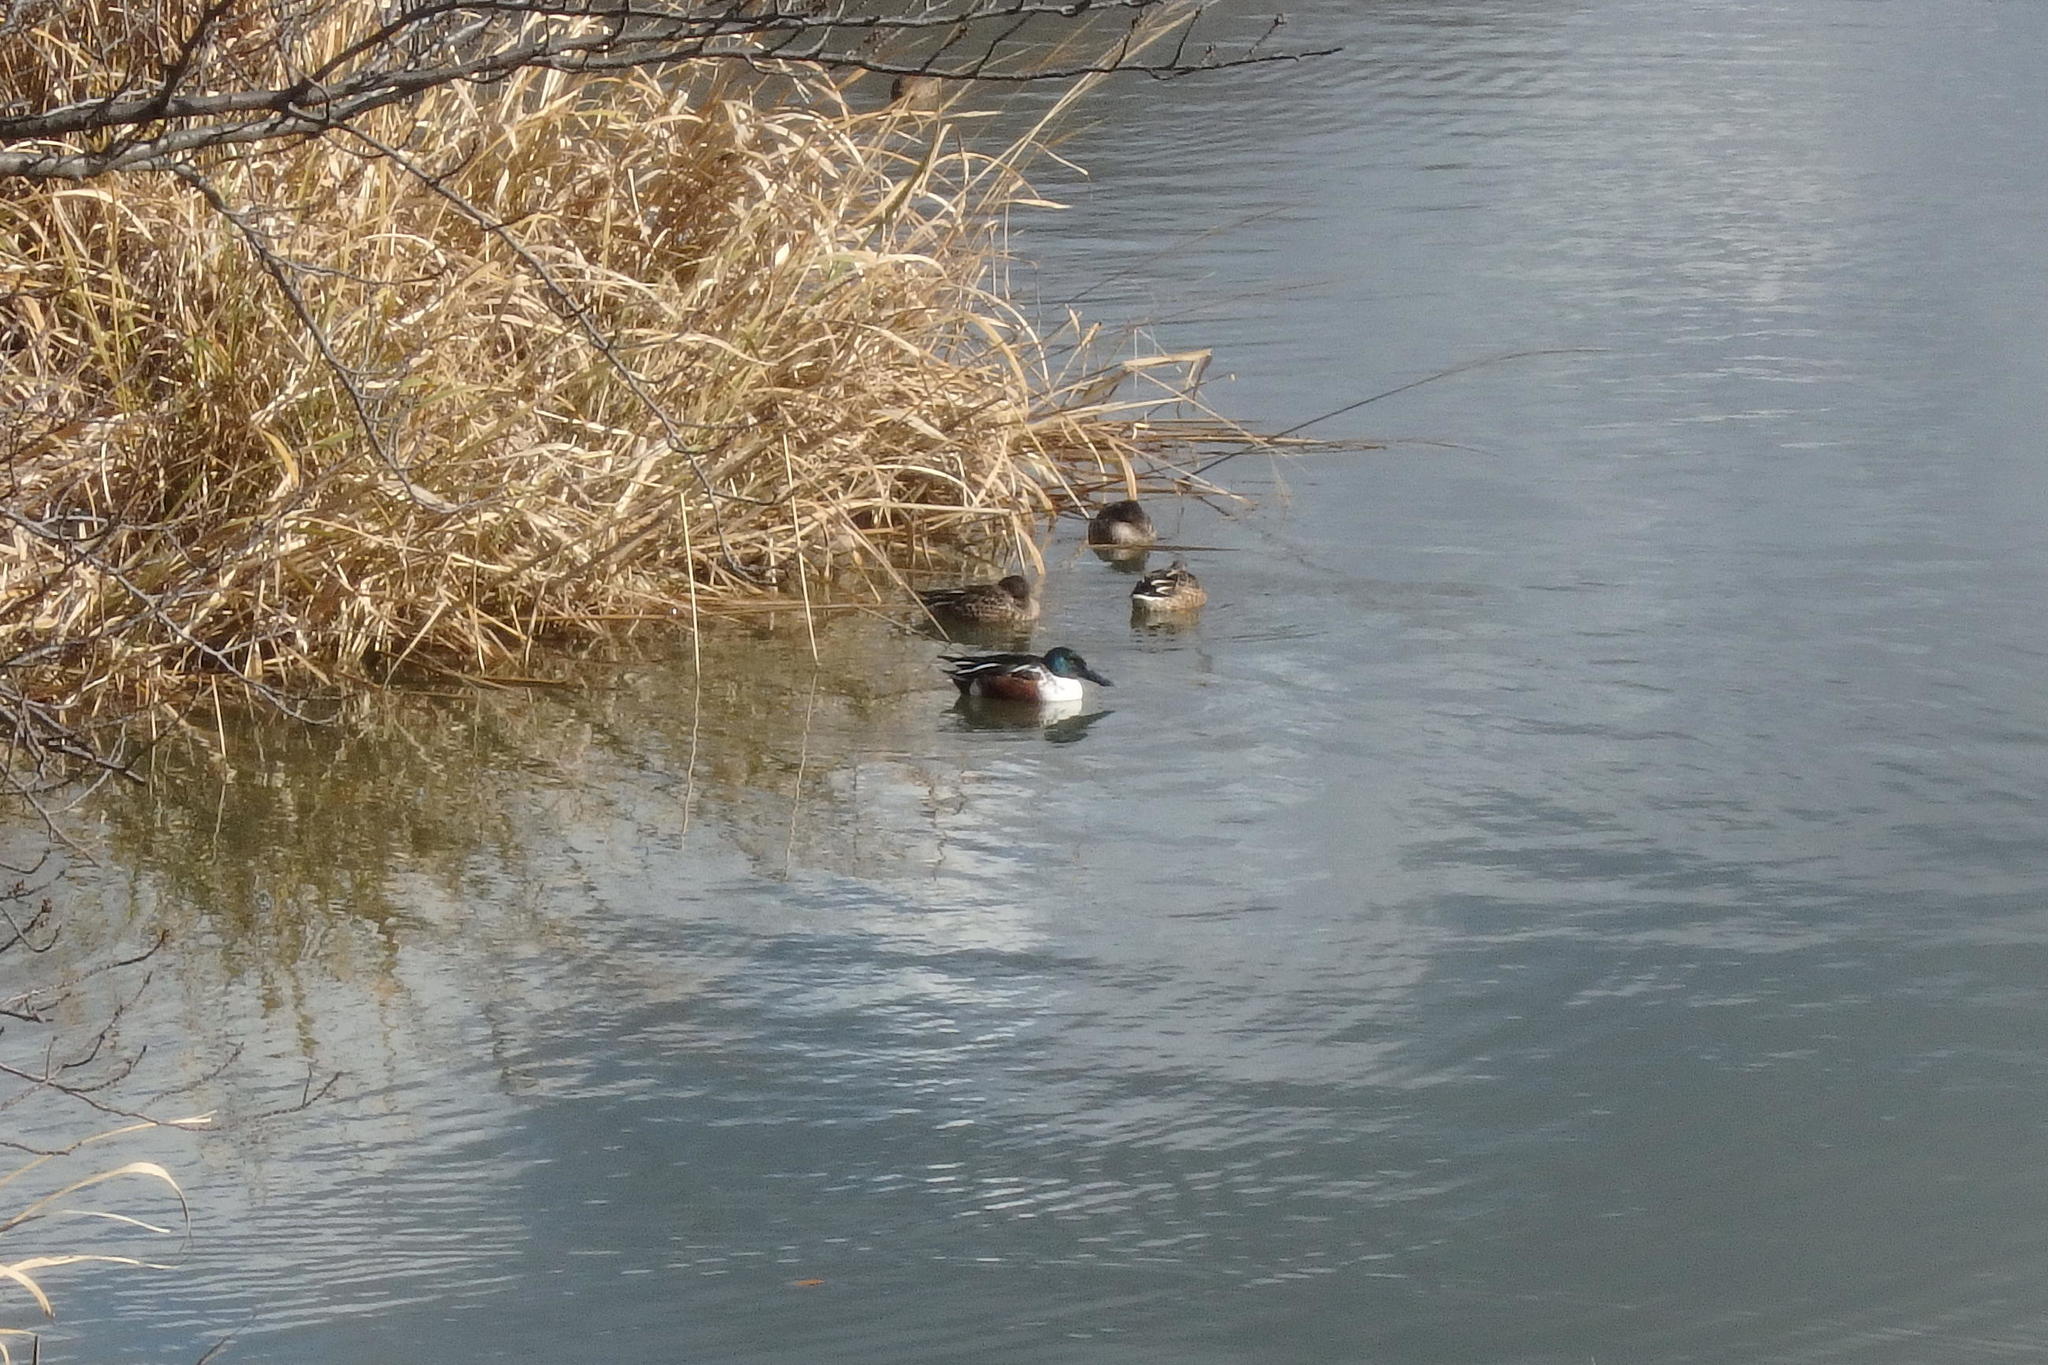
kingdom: Animalia
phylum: Chordata
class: Aves
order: Anseriformes
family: Anatidae
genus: Spatula
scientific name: Spatula clypeata
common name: Northern shoveler
